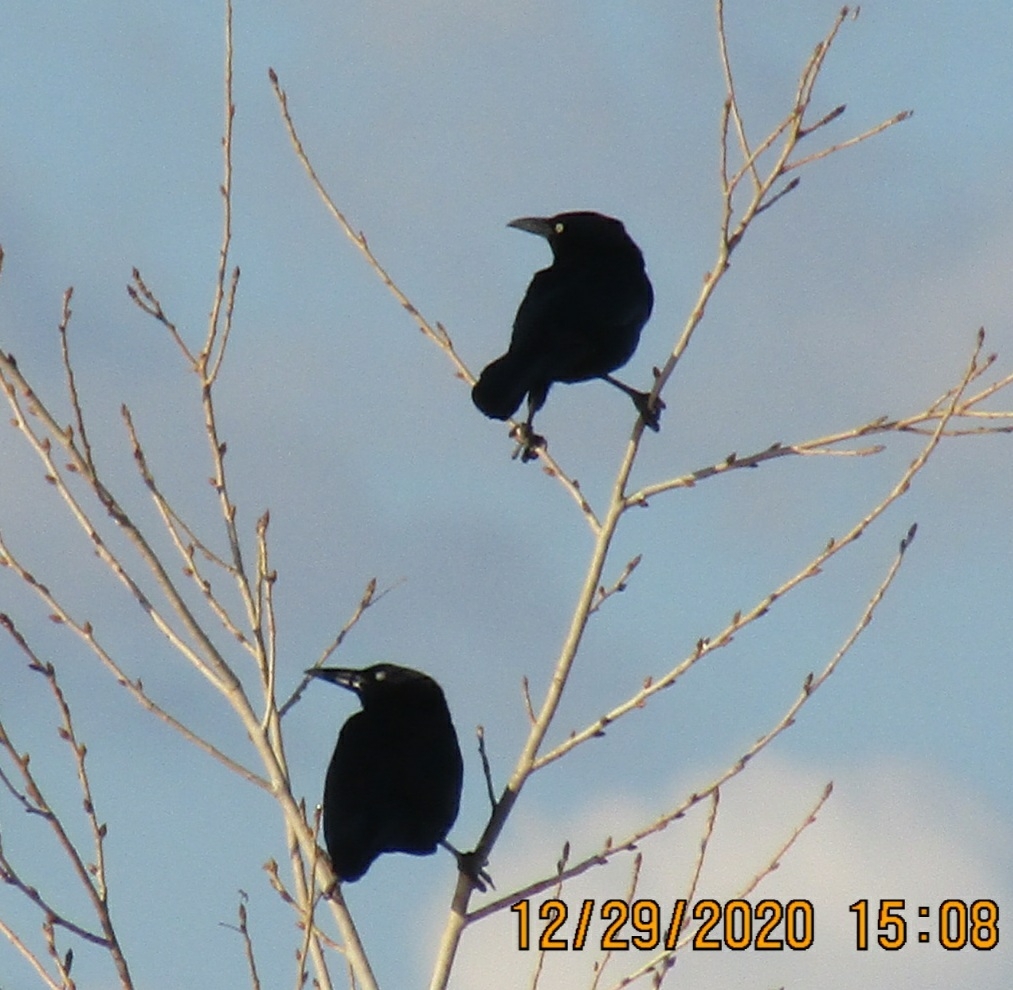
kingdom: Animalia
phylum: Chordata
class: Aves
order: Passeriformes
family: Icteridae
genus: Quiscalus
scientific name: Quiscalus mexicanus
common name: Great-tailed grackle
